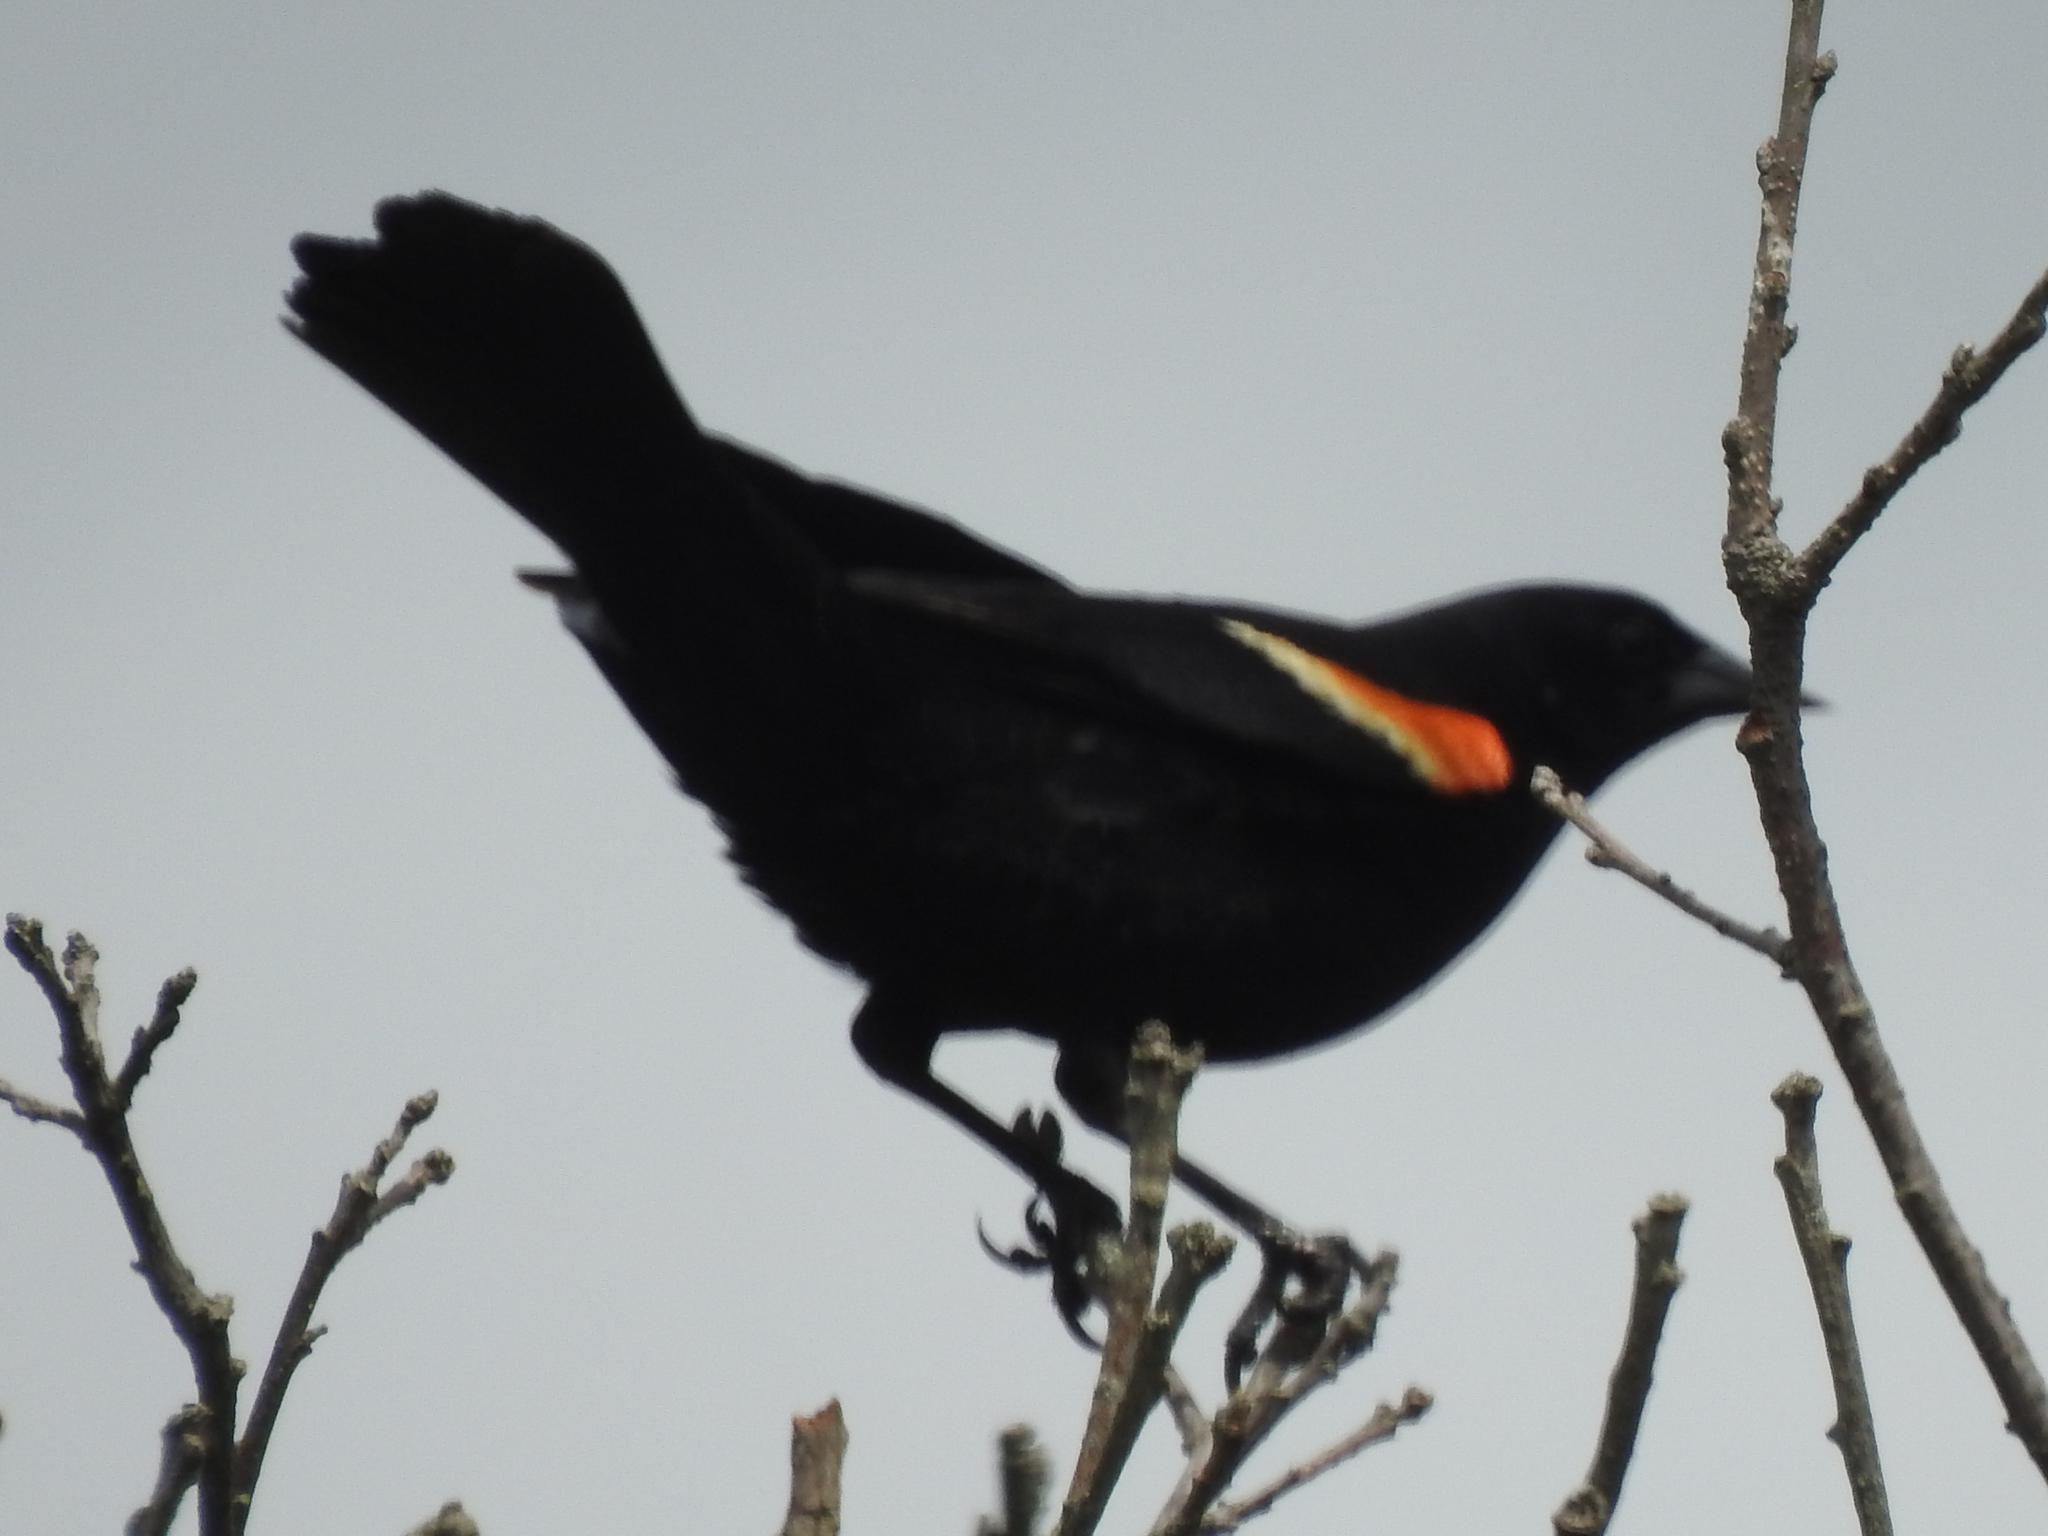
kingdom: Animalia
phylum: Chordata
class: Aves
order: Passeriformes
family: Icteridae
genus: Agelaius
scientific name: Agelaius phoeniceus
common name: Red-winged blackbird
